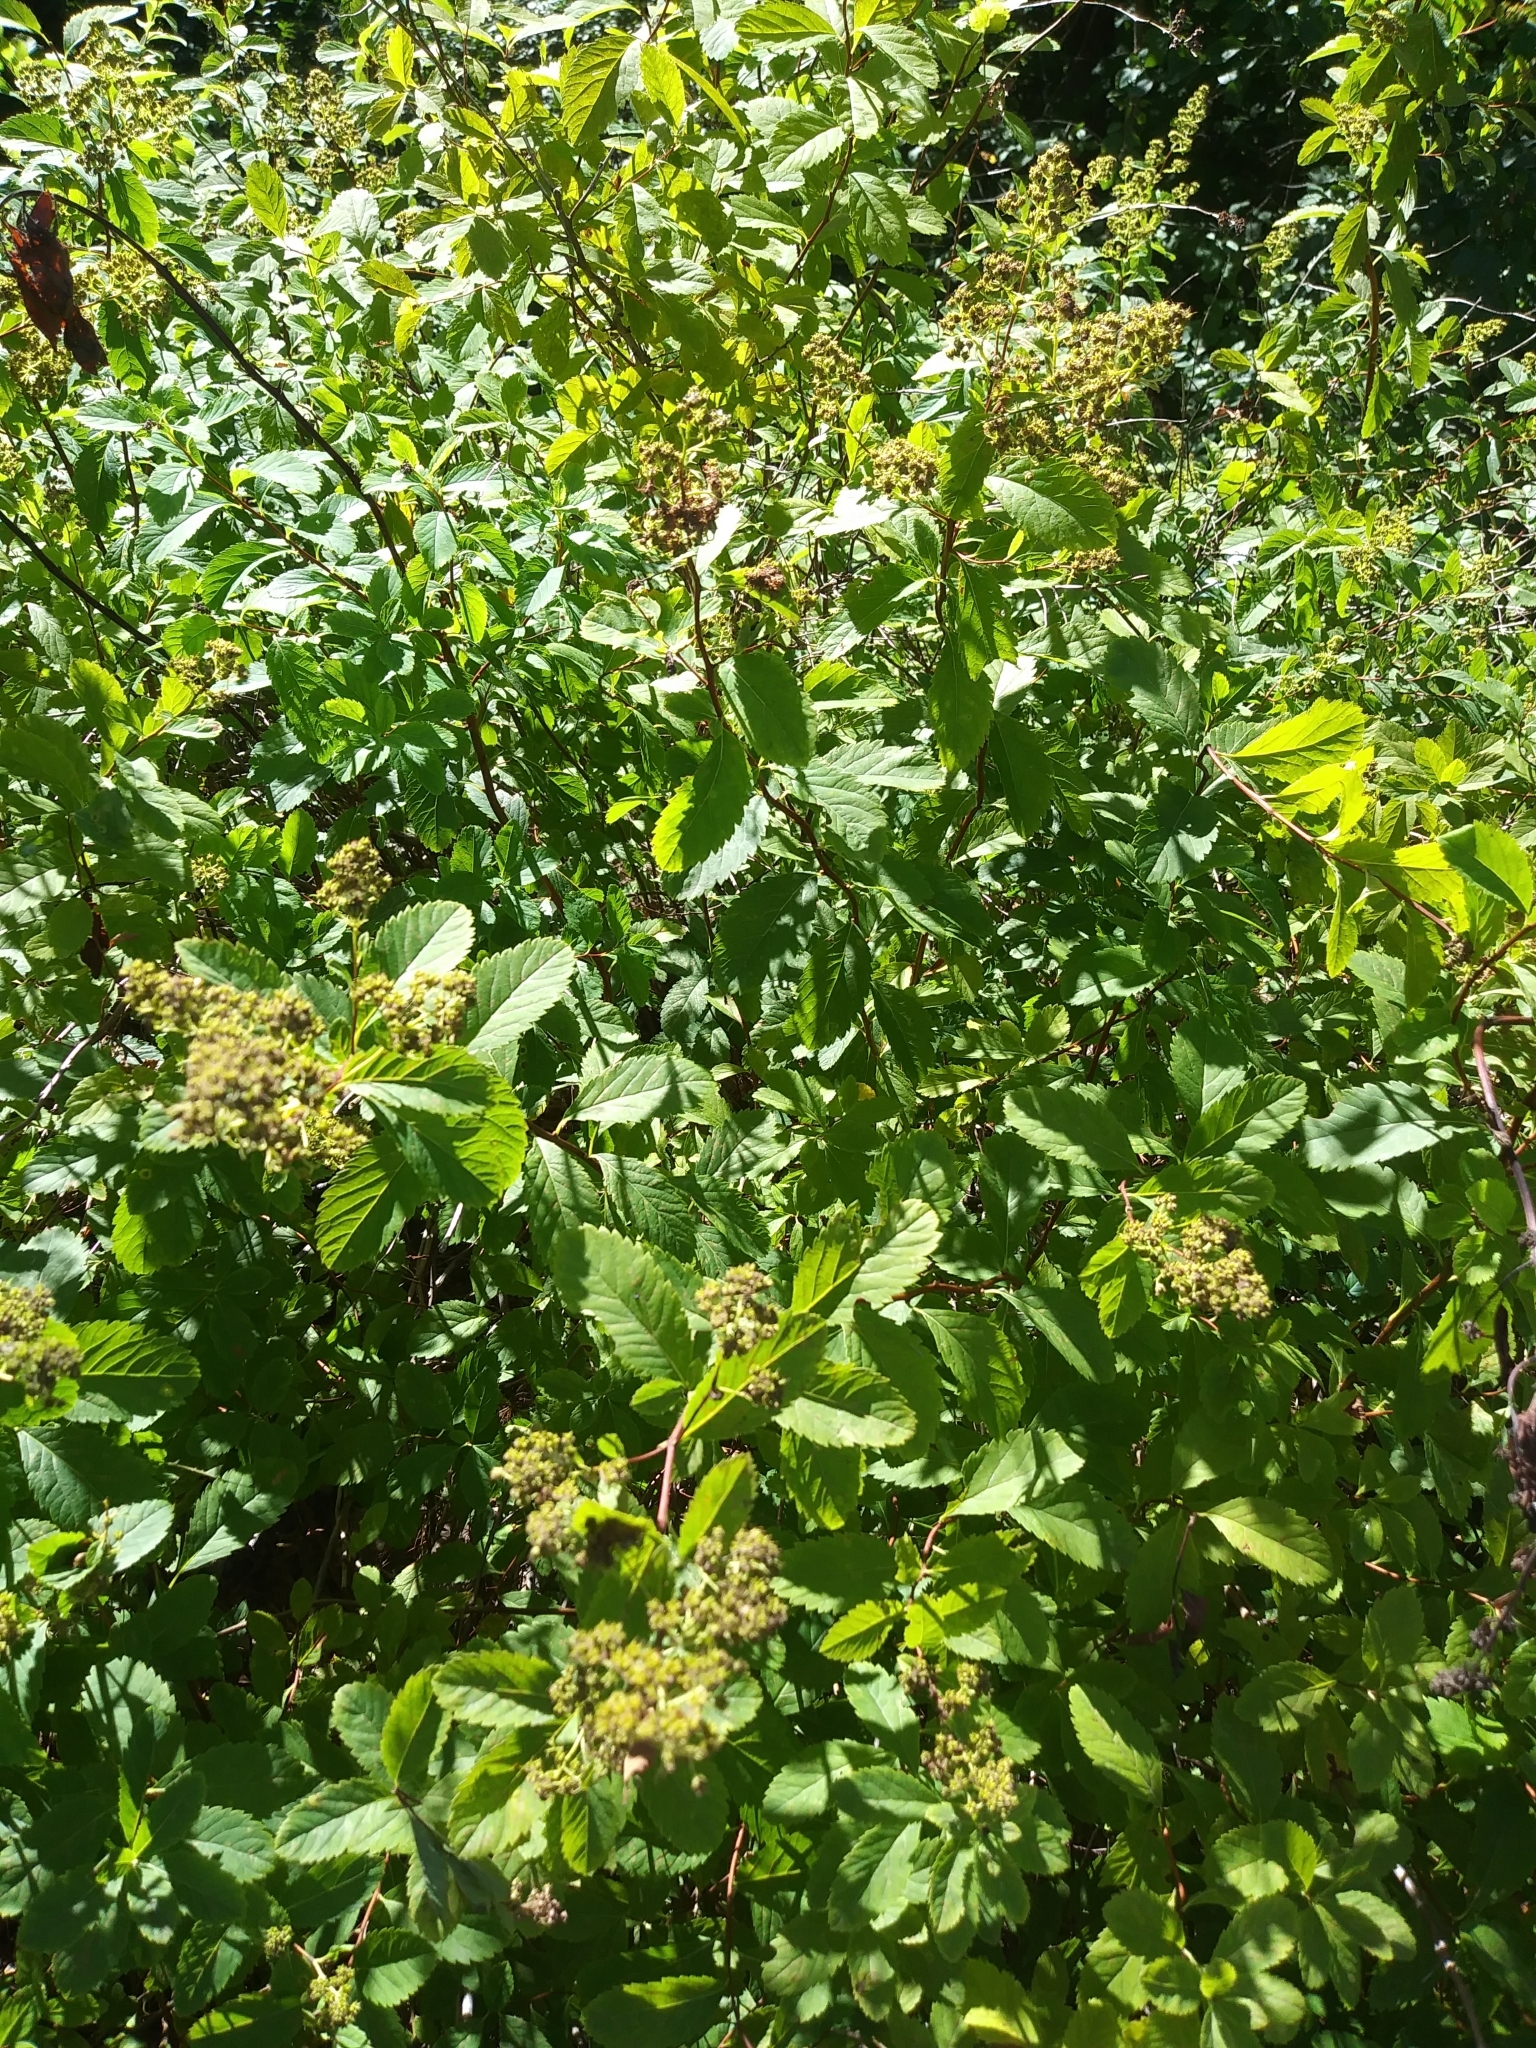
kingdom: Plantae
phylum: Tracheophyta
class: Magnoliopsida
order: Rosales
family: Rosaceae
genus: Spiraea
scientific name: Spiraea alba
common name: Pale bridewort
